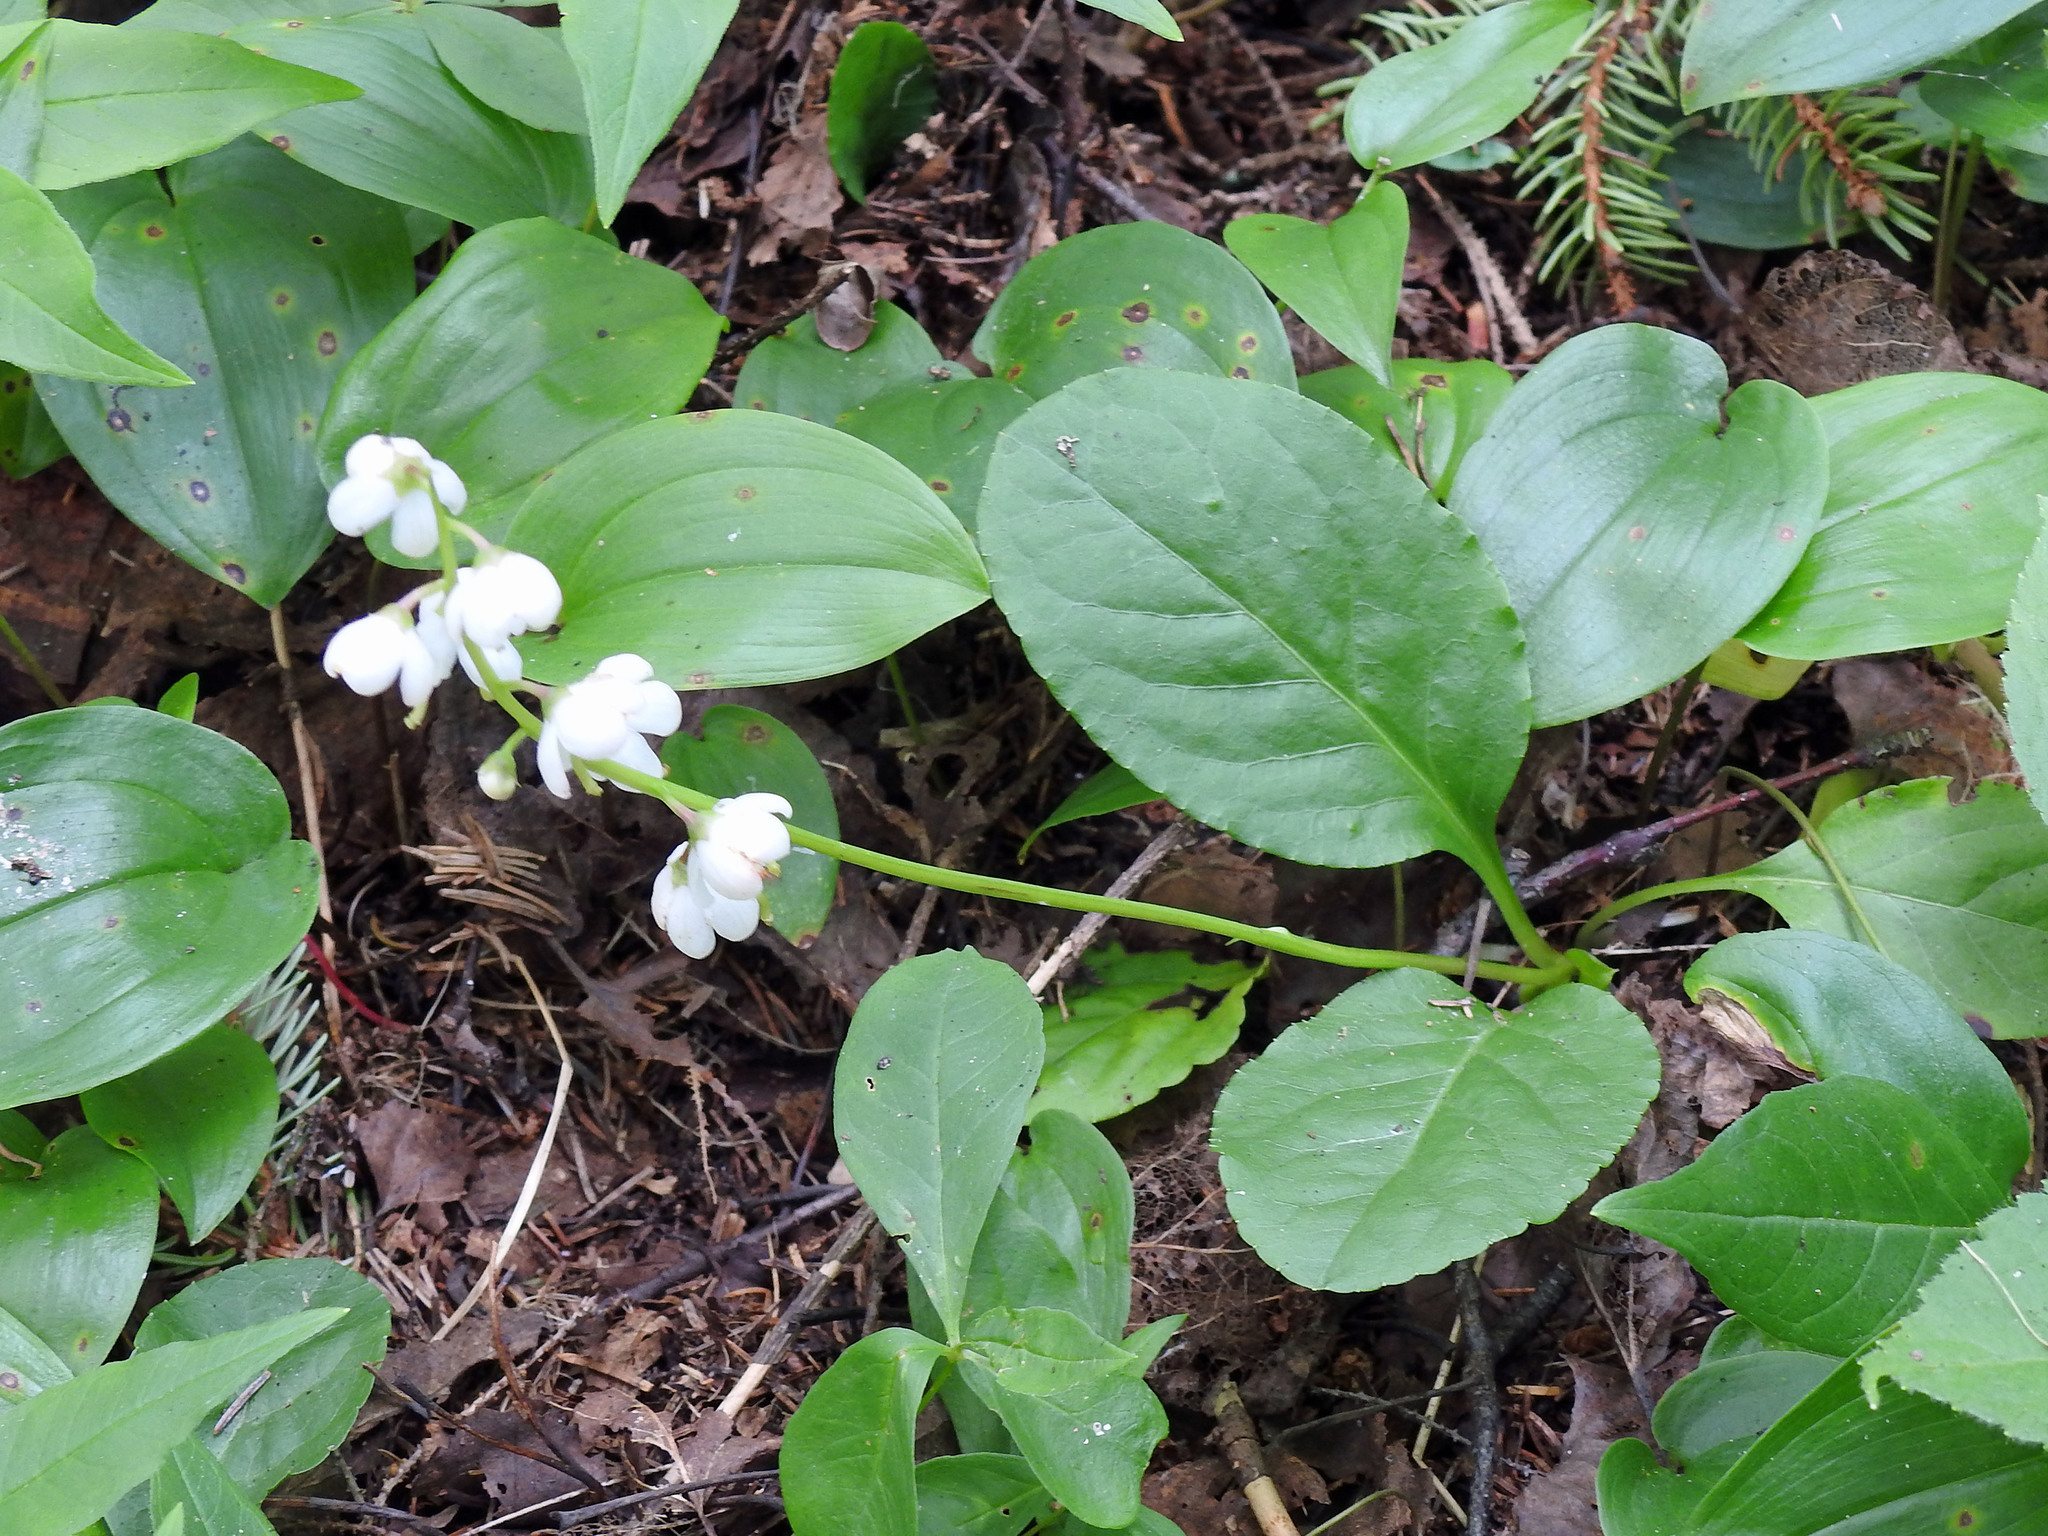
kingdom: Plantae
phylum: Tracheophyta
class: Magnoliopsida
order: Ericales
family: Ericaceae
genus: Pyrola
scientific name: Pyrola elliptica
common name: Shinleaf
